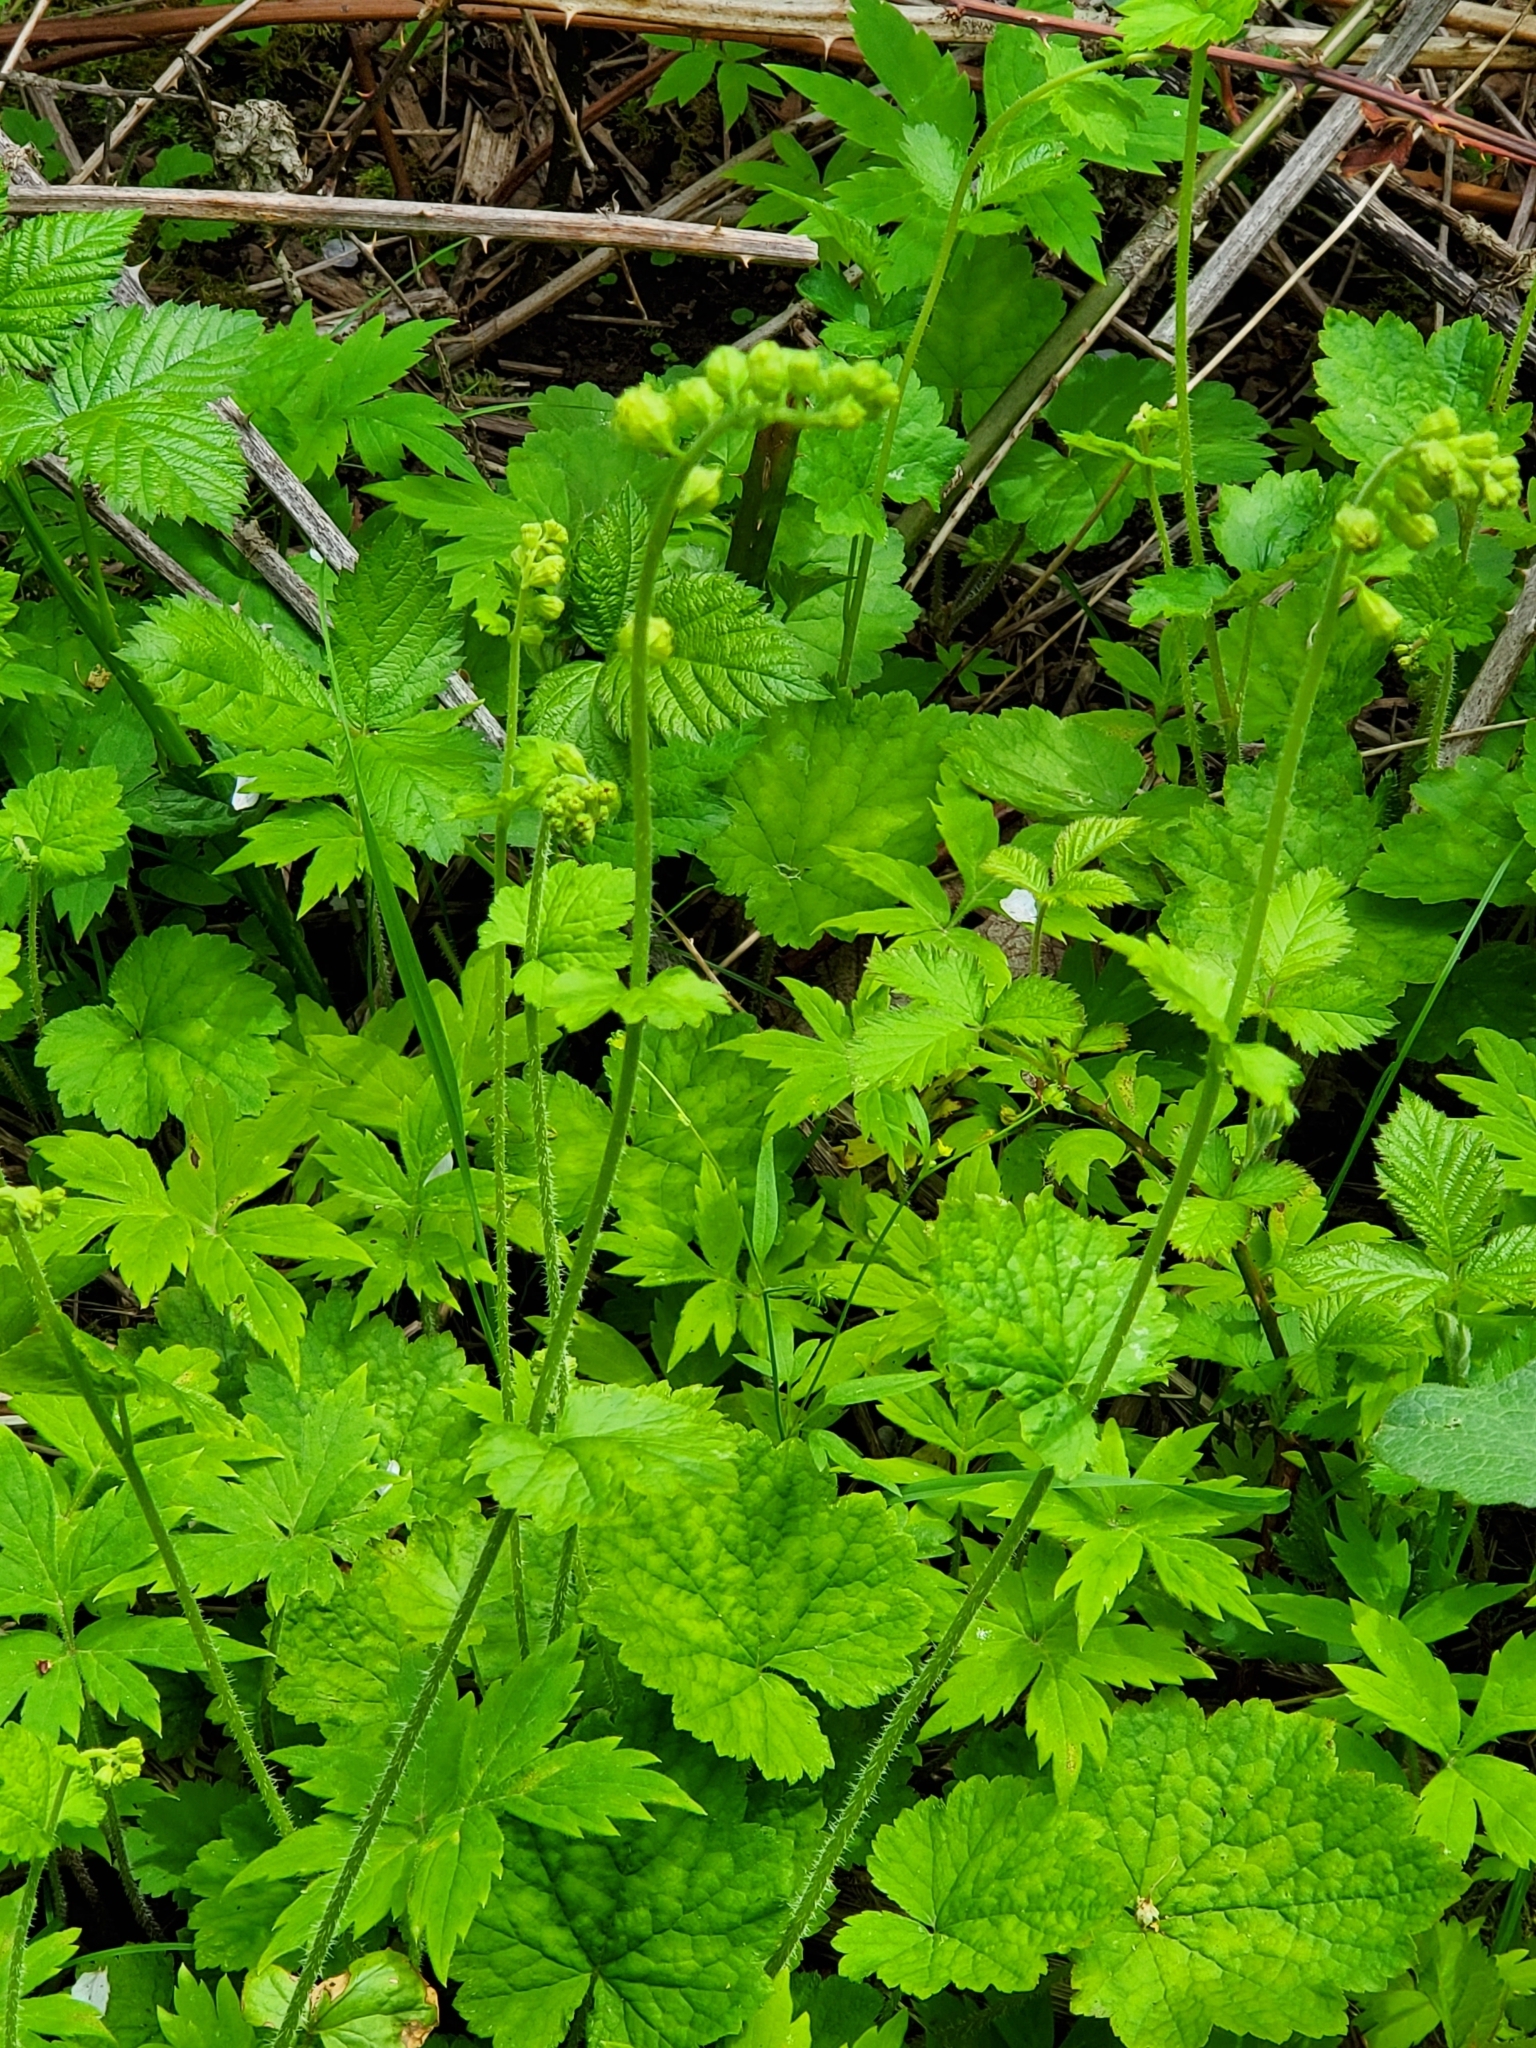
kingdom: Plantae
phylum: Tracheophyta
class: Magnoliopsida
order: Saxifragales
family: Saxifragaceae
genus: Tellima
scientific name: Tellima grandiflora
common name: Fringecups
